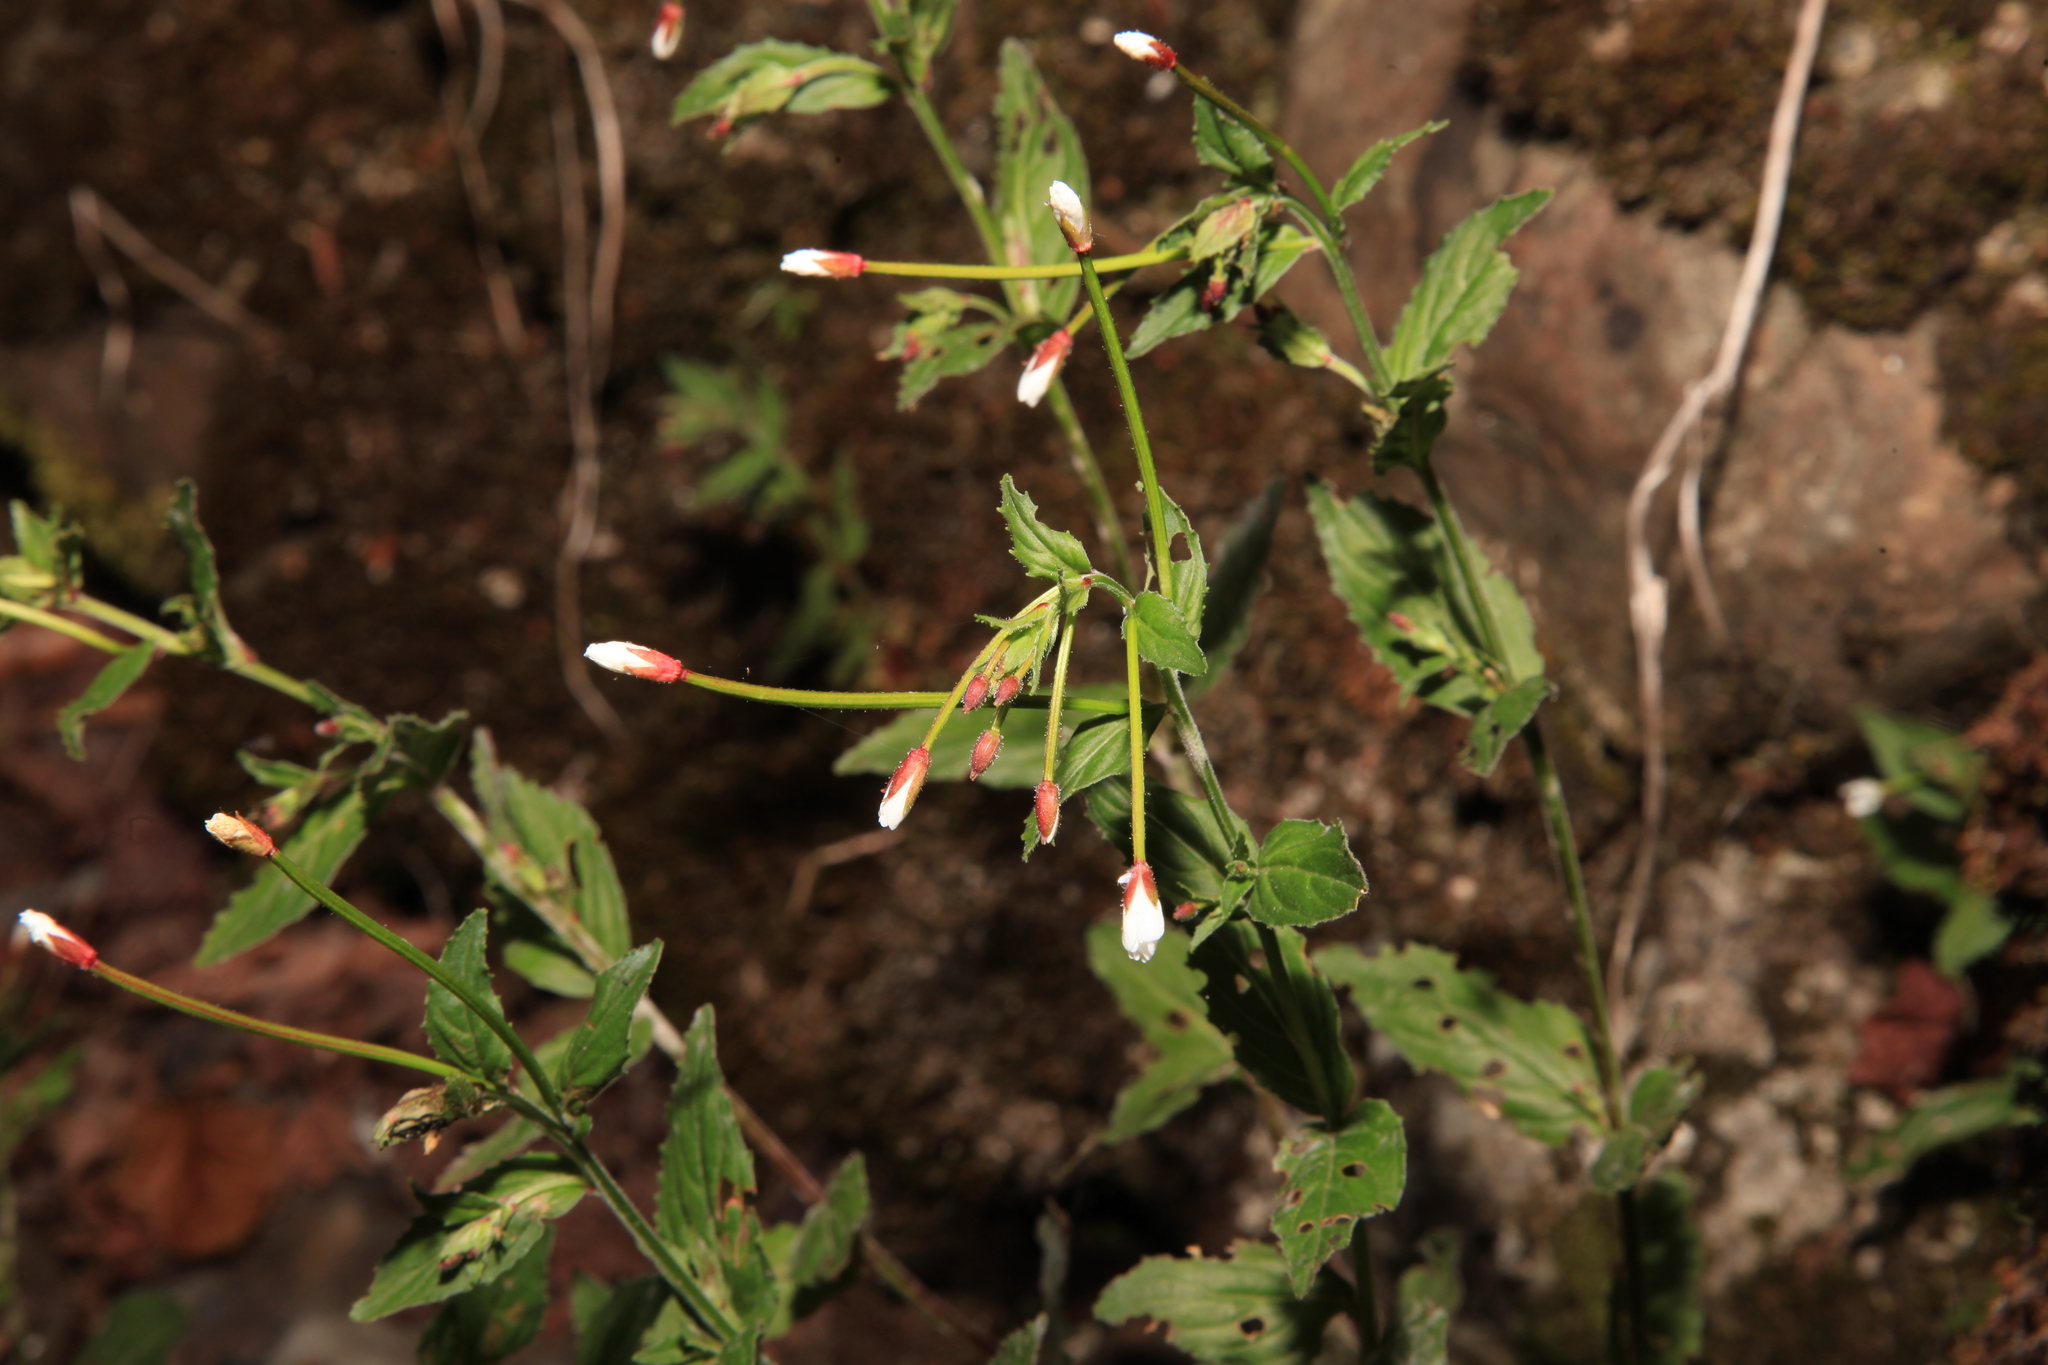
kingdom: Plantae
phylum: Tracheophyta
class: Magnoliopsida
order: Myrtales
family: Onagraceae
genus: Epilobium
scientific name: Epilobium amurense
